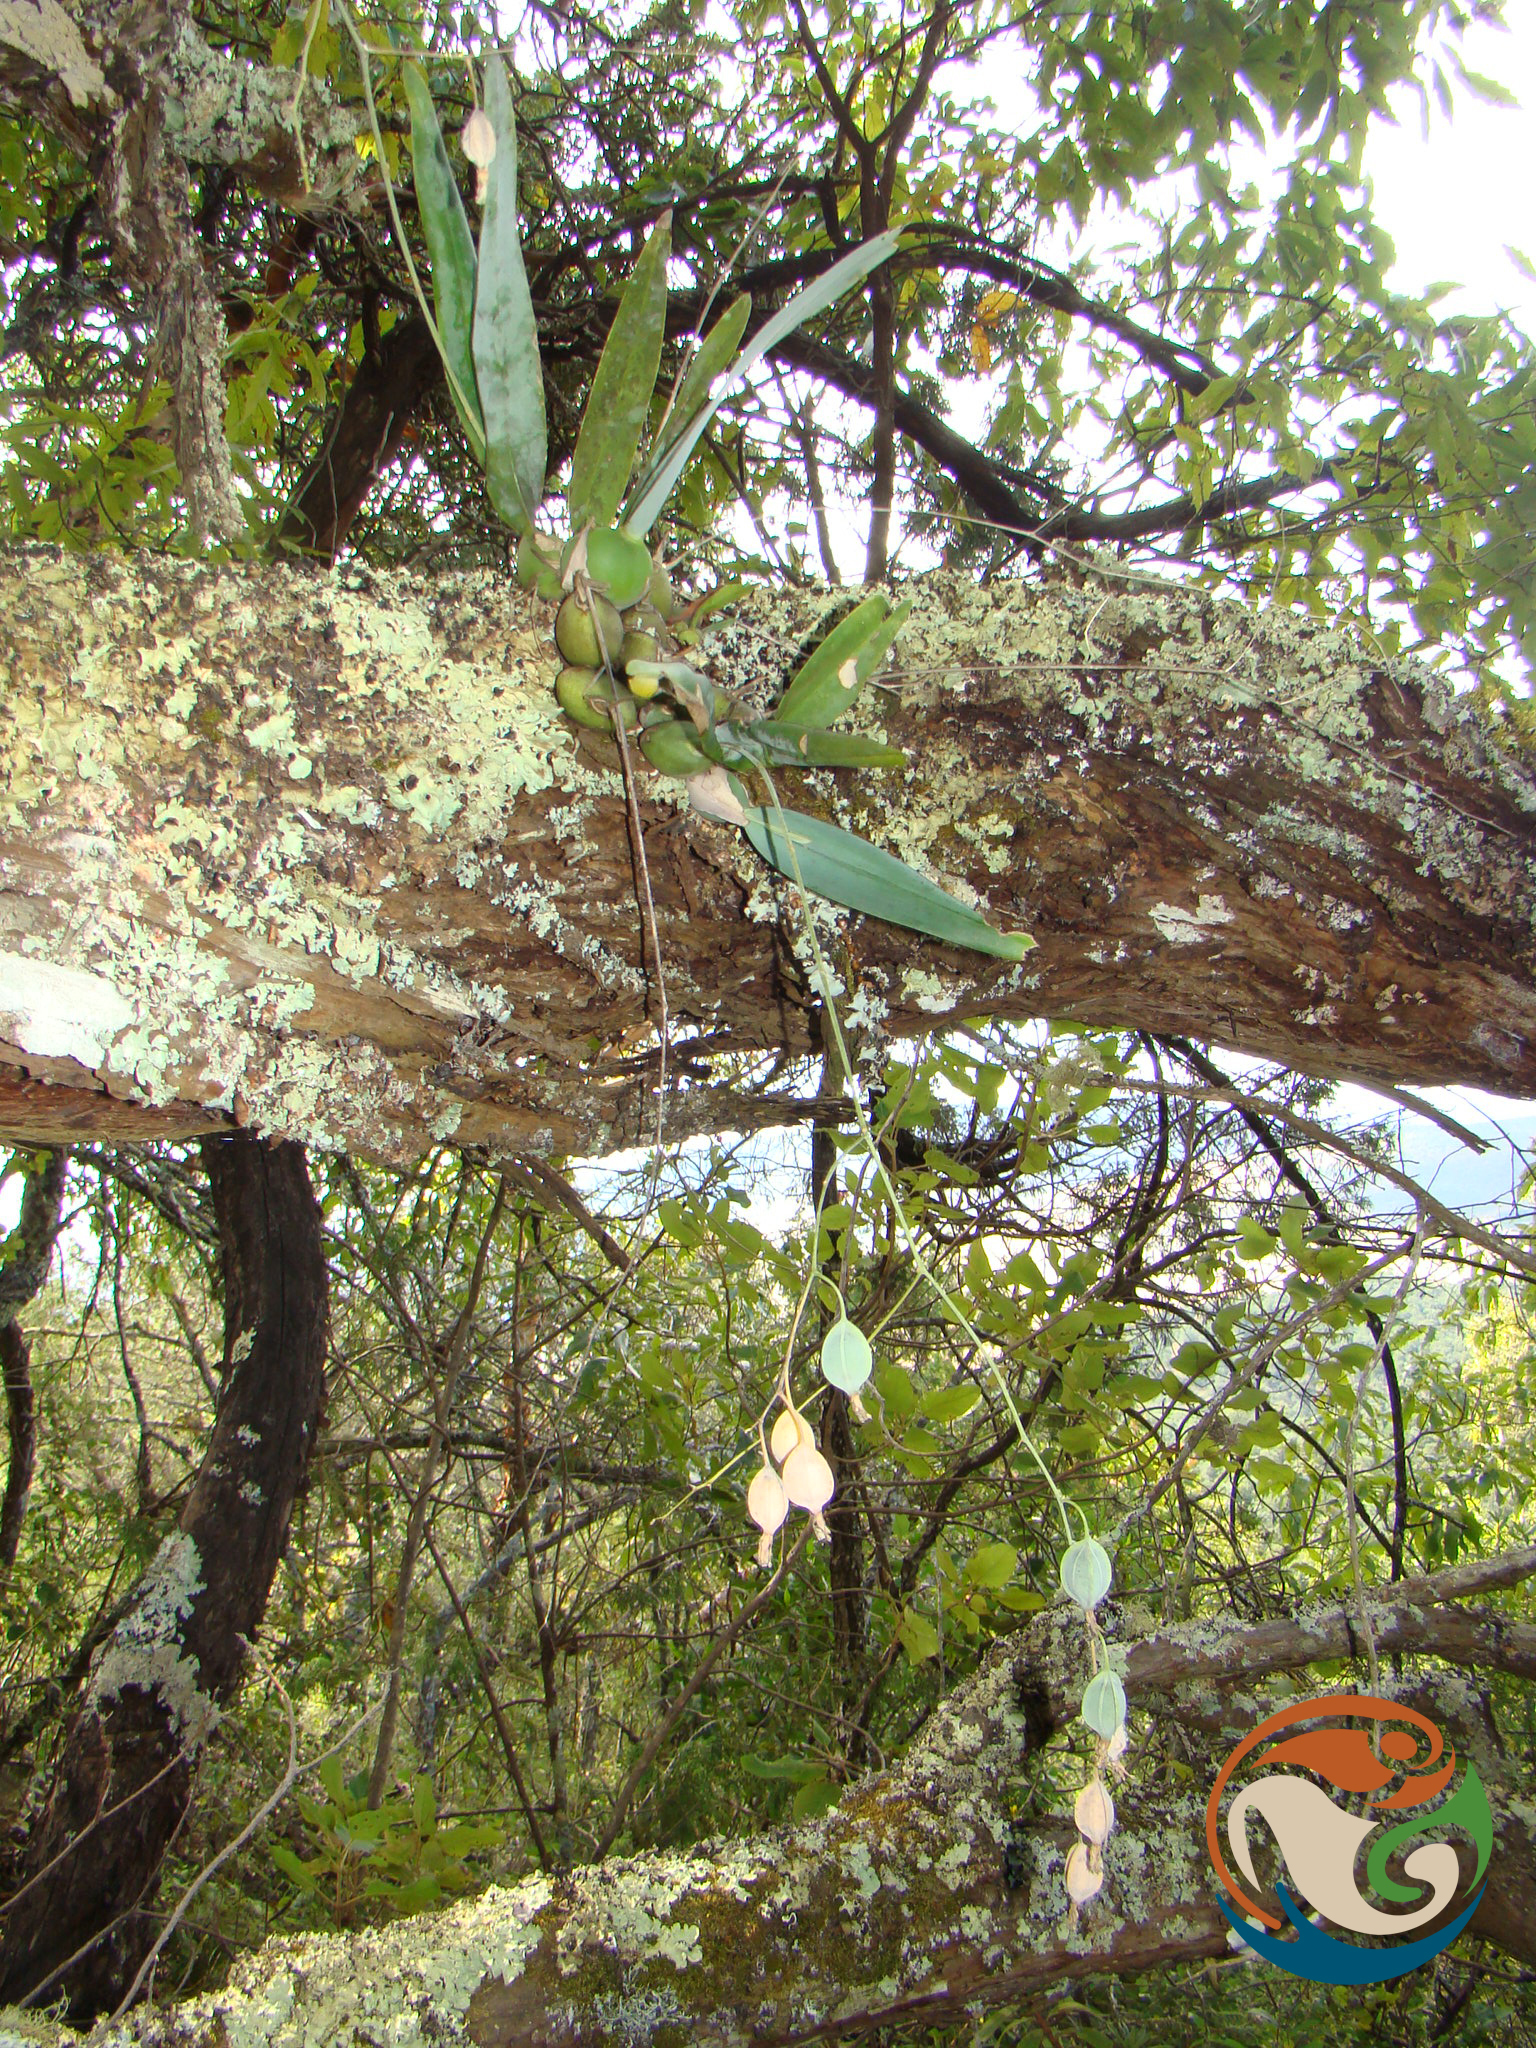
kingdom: Plantae
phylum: Tracheophyta
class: Liliopsida
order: Asparagales
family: Orchidaceae
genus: Prosthechea
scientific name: Prosthechea concolor
